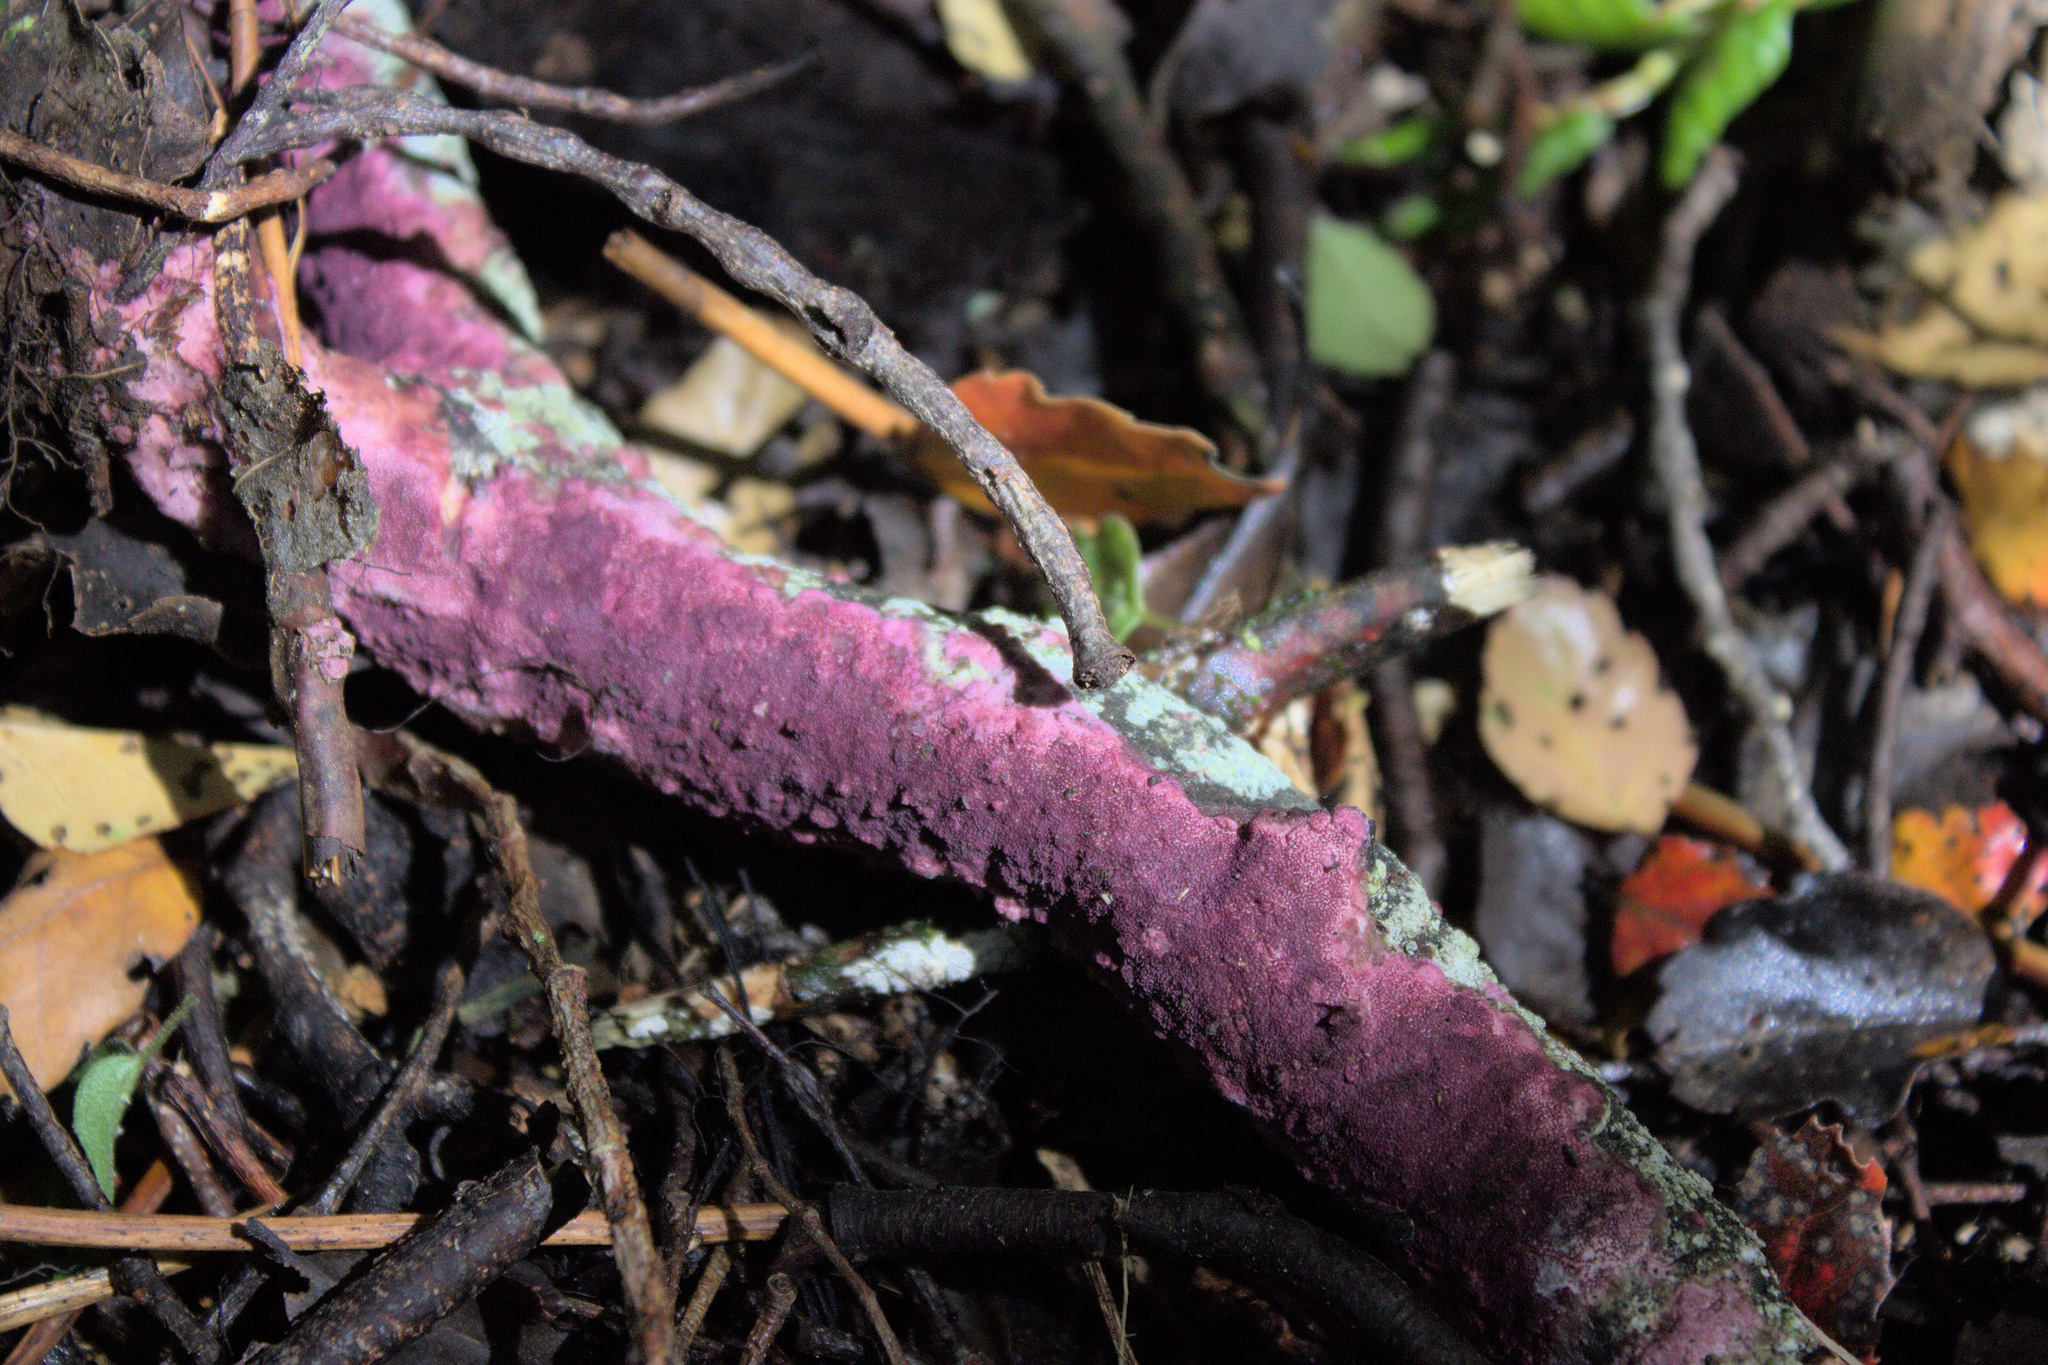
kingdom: Fungi
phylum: Basidiomycota
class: Agaricomycetes
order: Polyporales
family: Irpicaceae
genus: Byssomerulius
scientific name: Byssomerulius psittacinus
